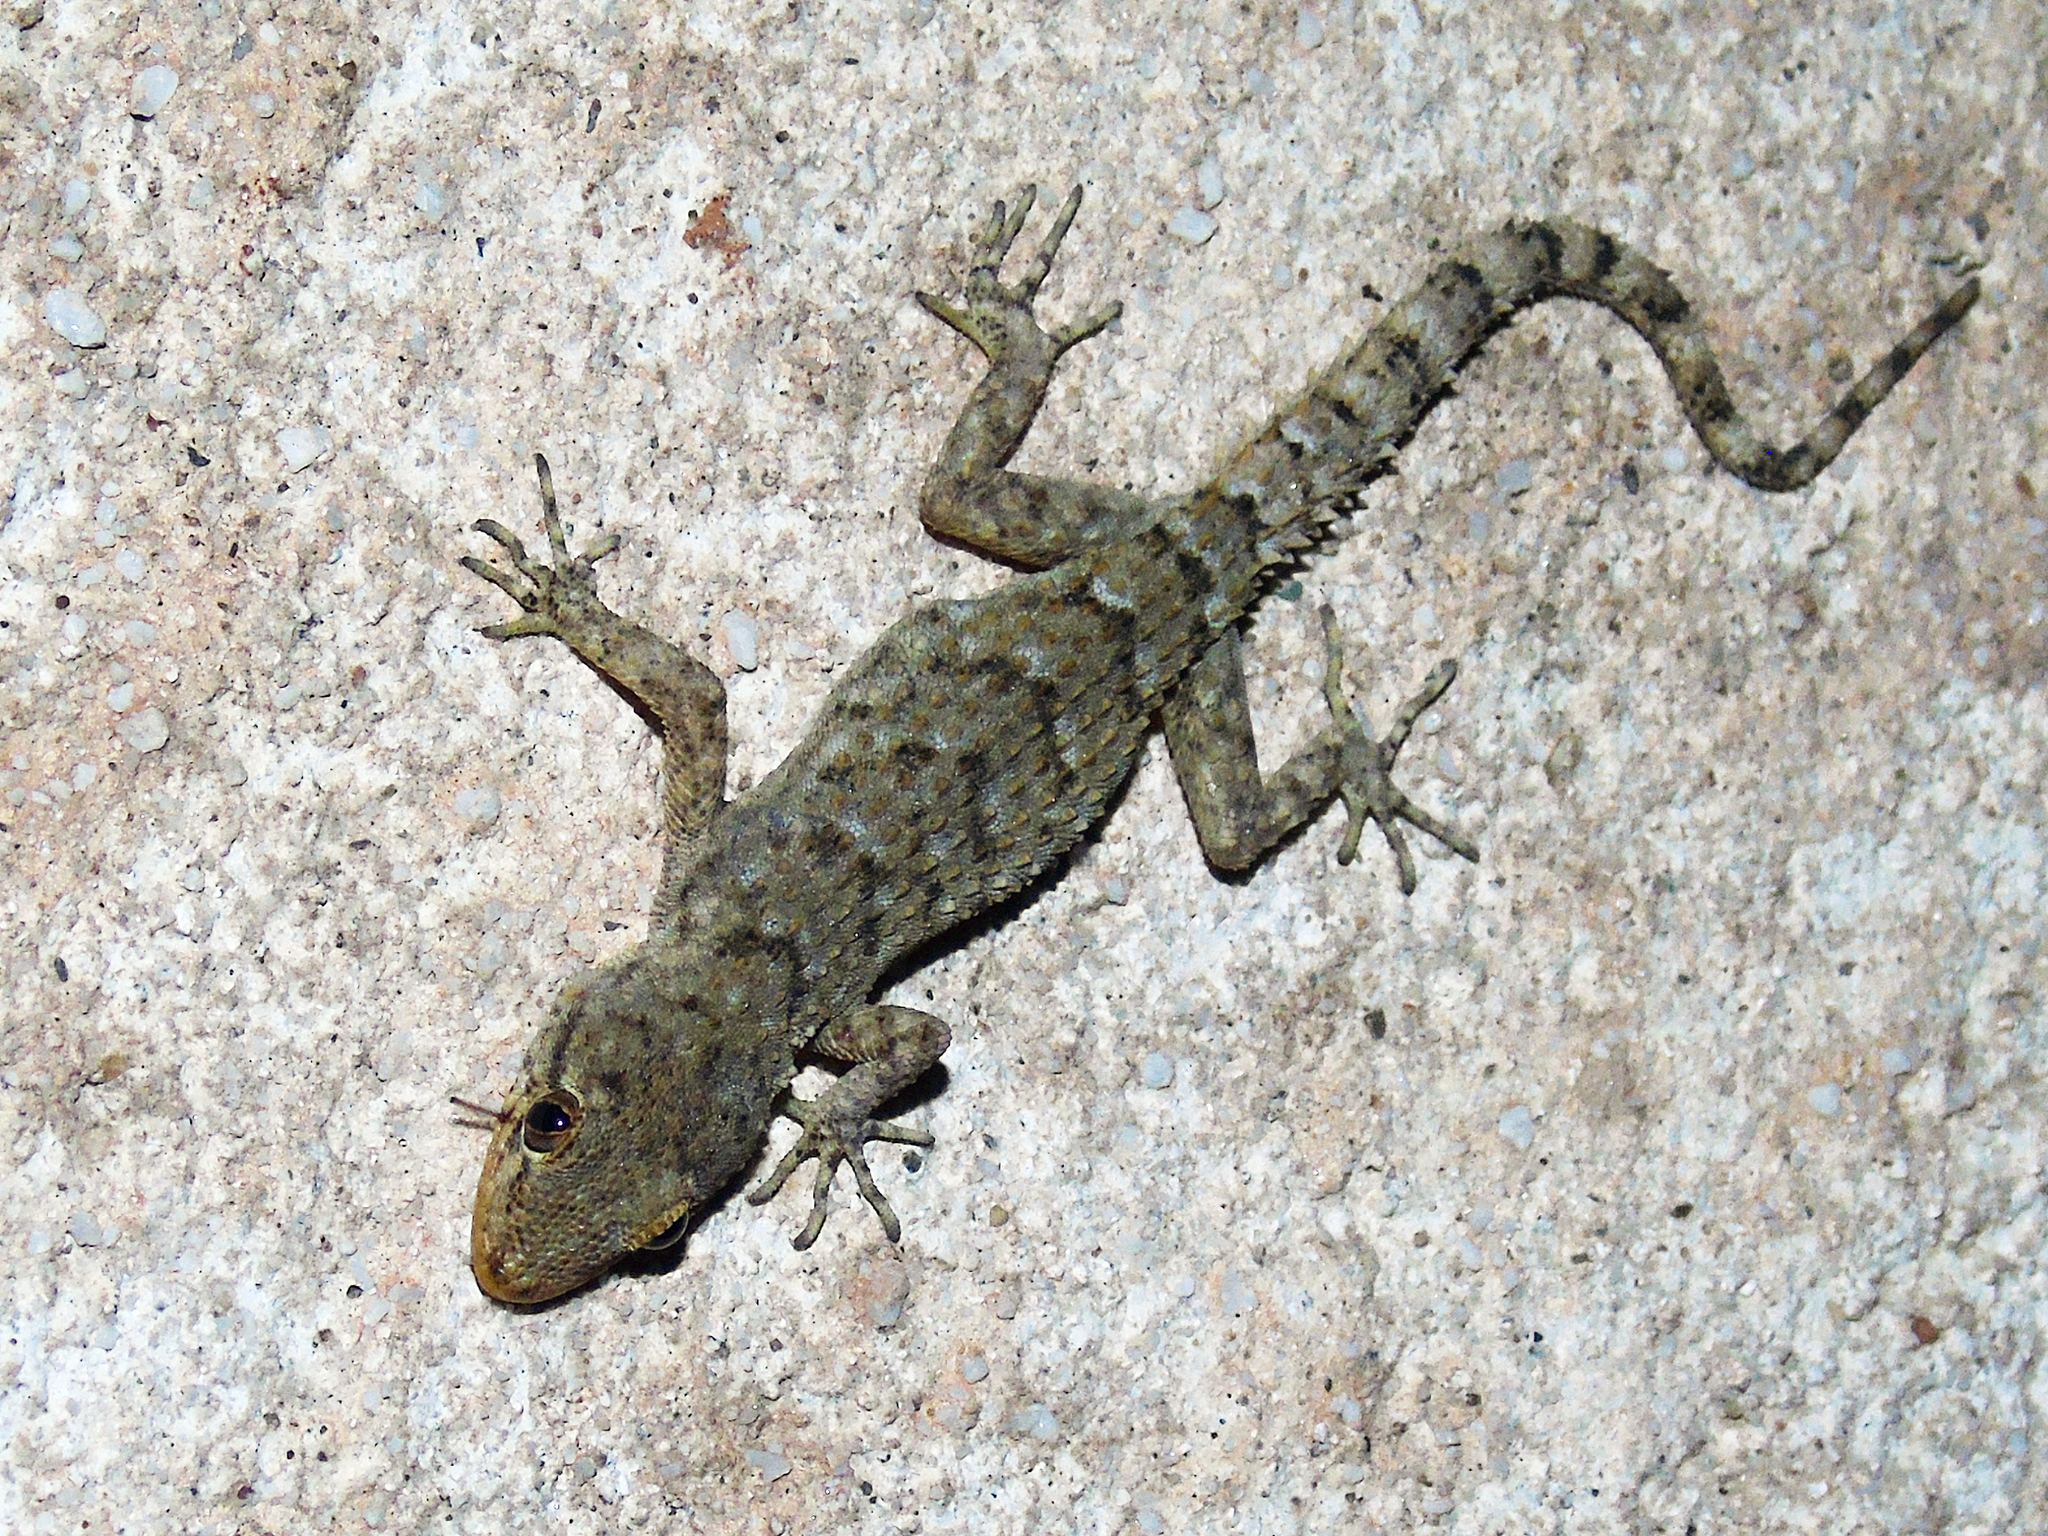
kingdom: Animalia
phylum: Chordata
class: Squamata
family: Gekkonidae
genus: Mediodactylus
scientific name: Mediodactylus kotschyi
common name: Kotschy's gecko
